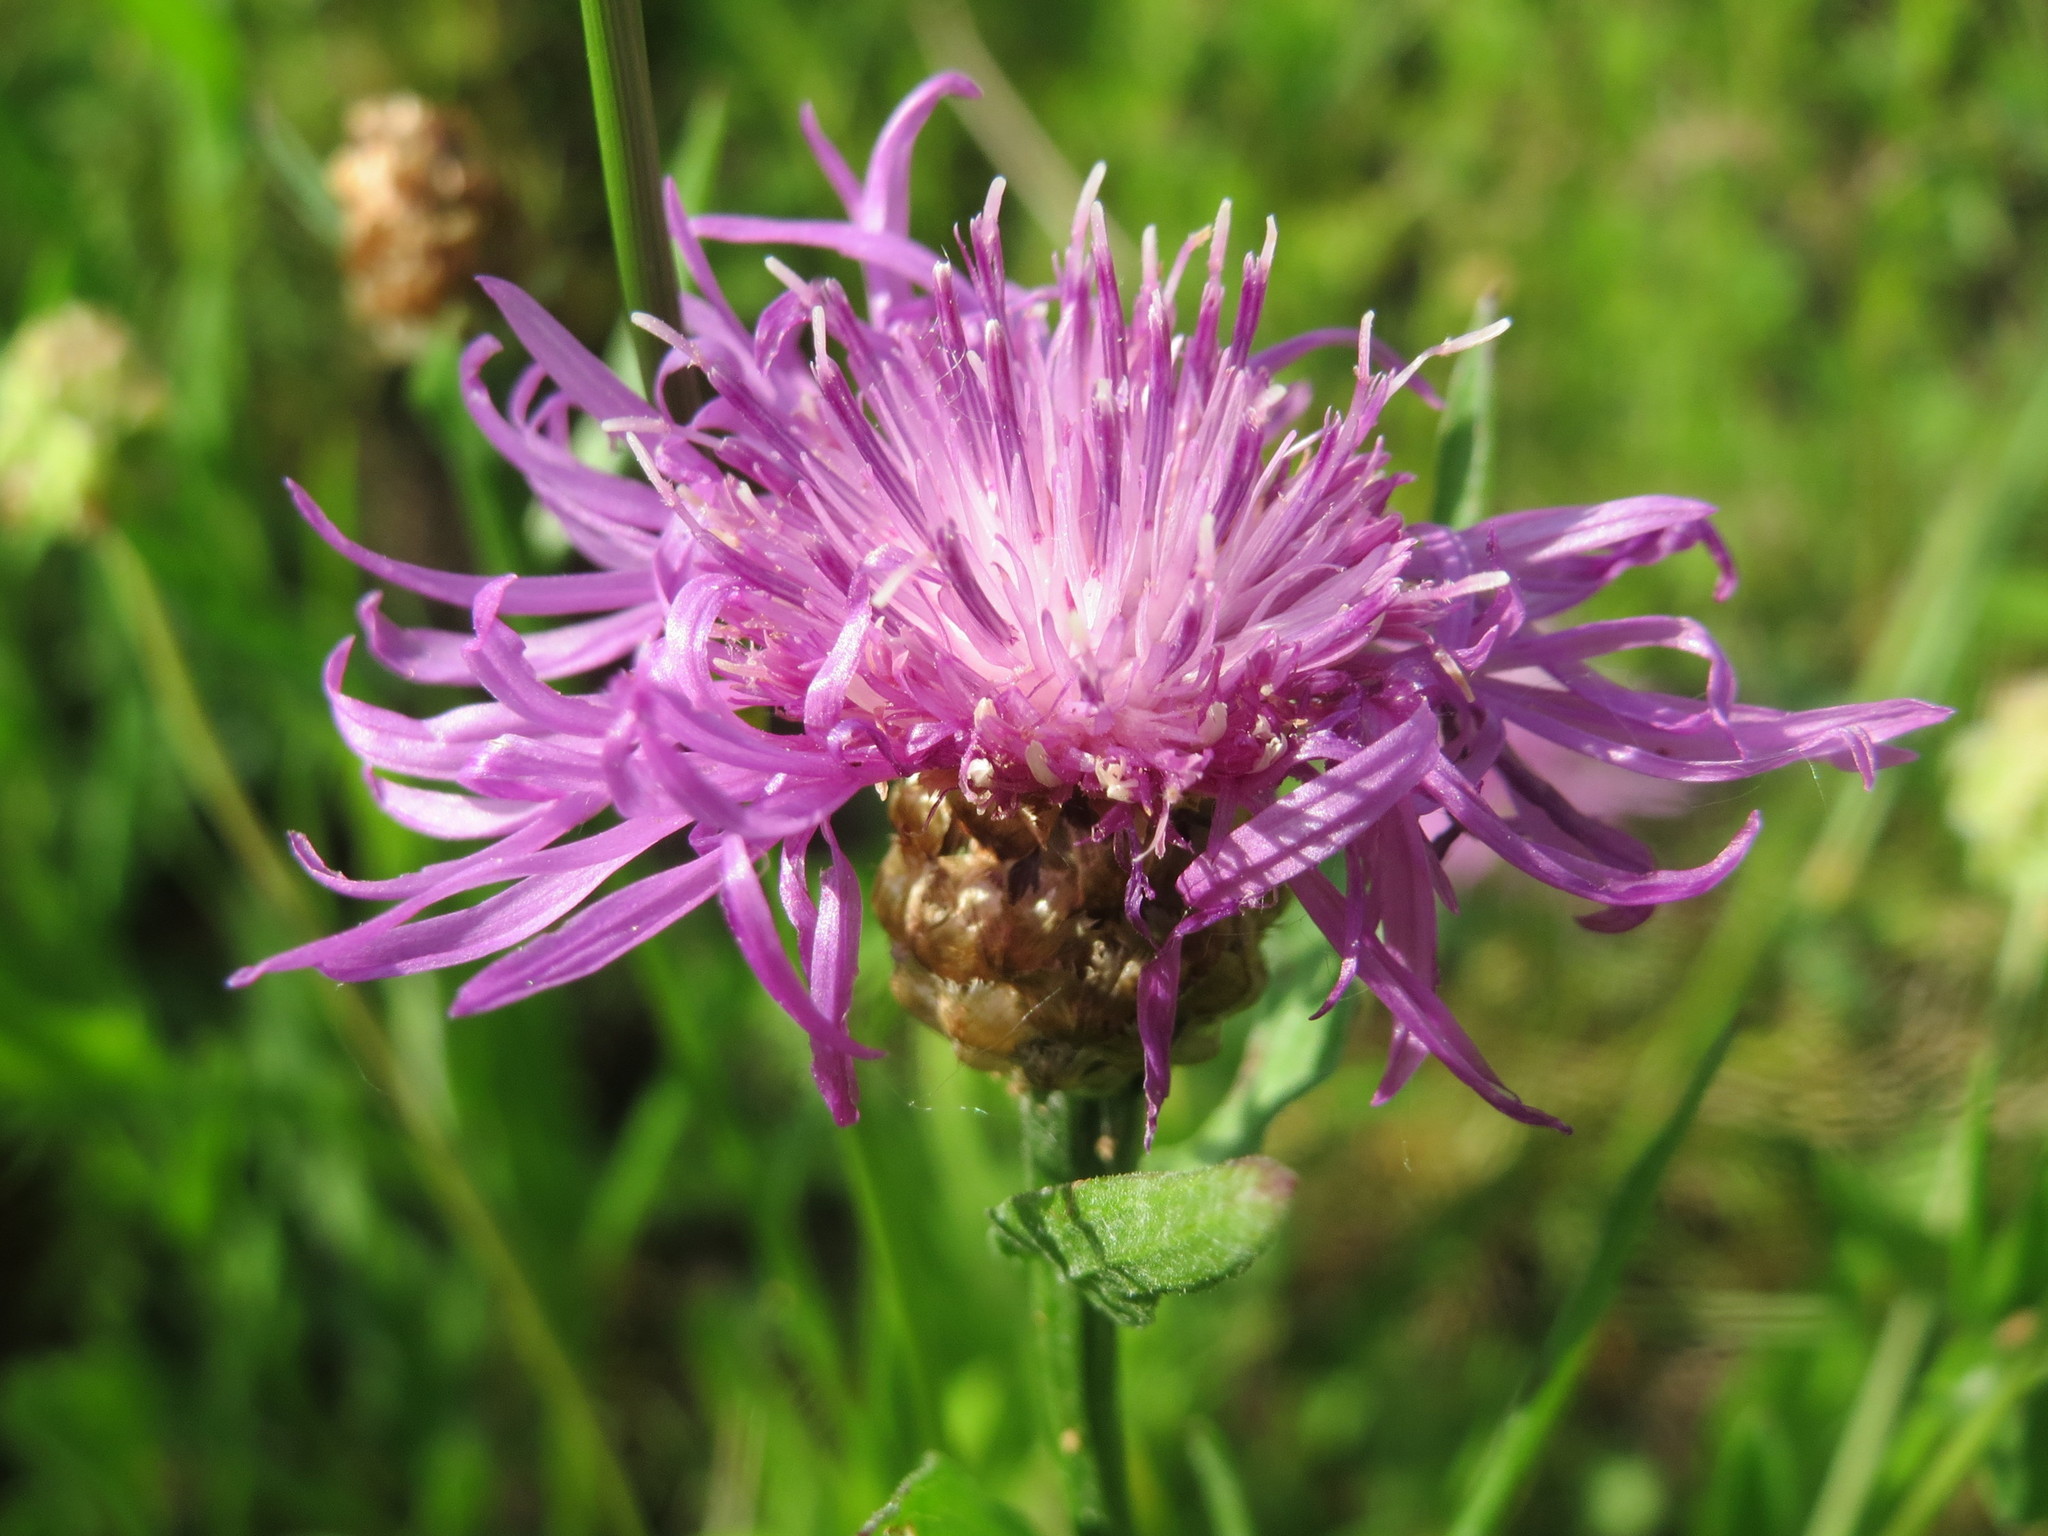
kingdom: Plantae
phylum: Tracheophyta
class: Magnoliopsida
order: Asterales
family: Asteraceae
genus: Centaurea
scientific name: Centaurea jacea
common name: Brown knapweed
